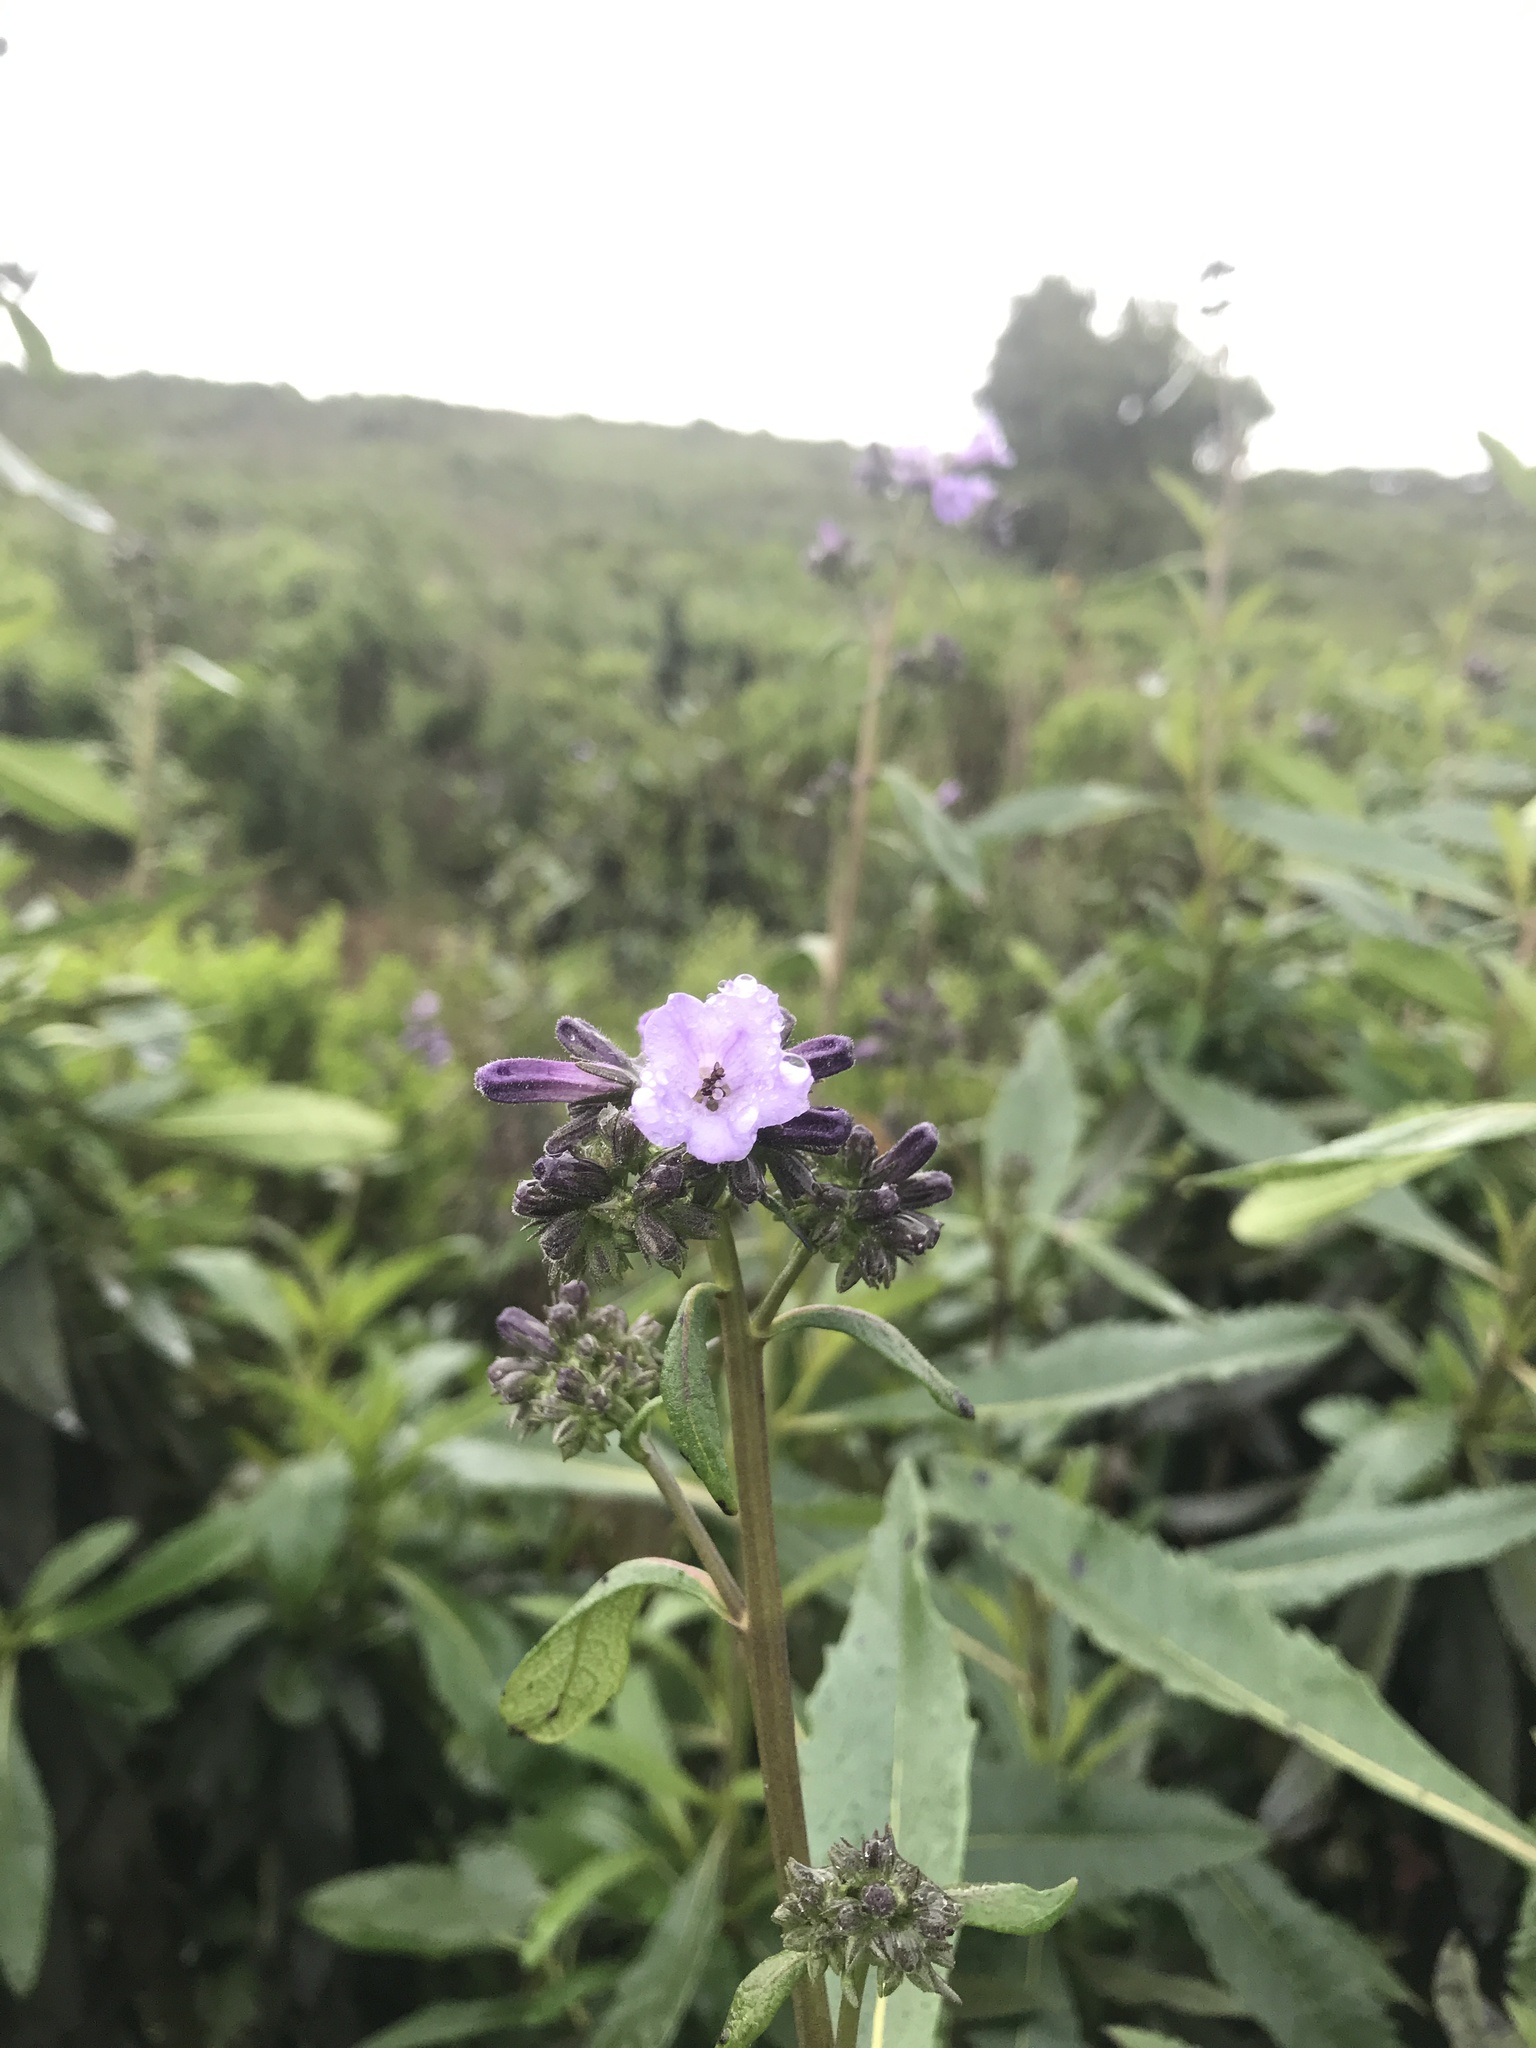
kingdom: Plantae
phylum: Tracheophyta
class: Magnoliopsida
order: Boraginales
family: Namaceae
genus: Eriodictyon
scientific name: Eriodictyon californicum
